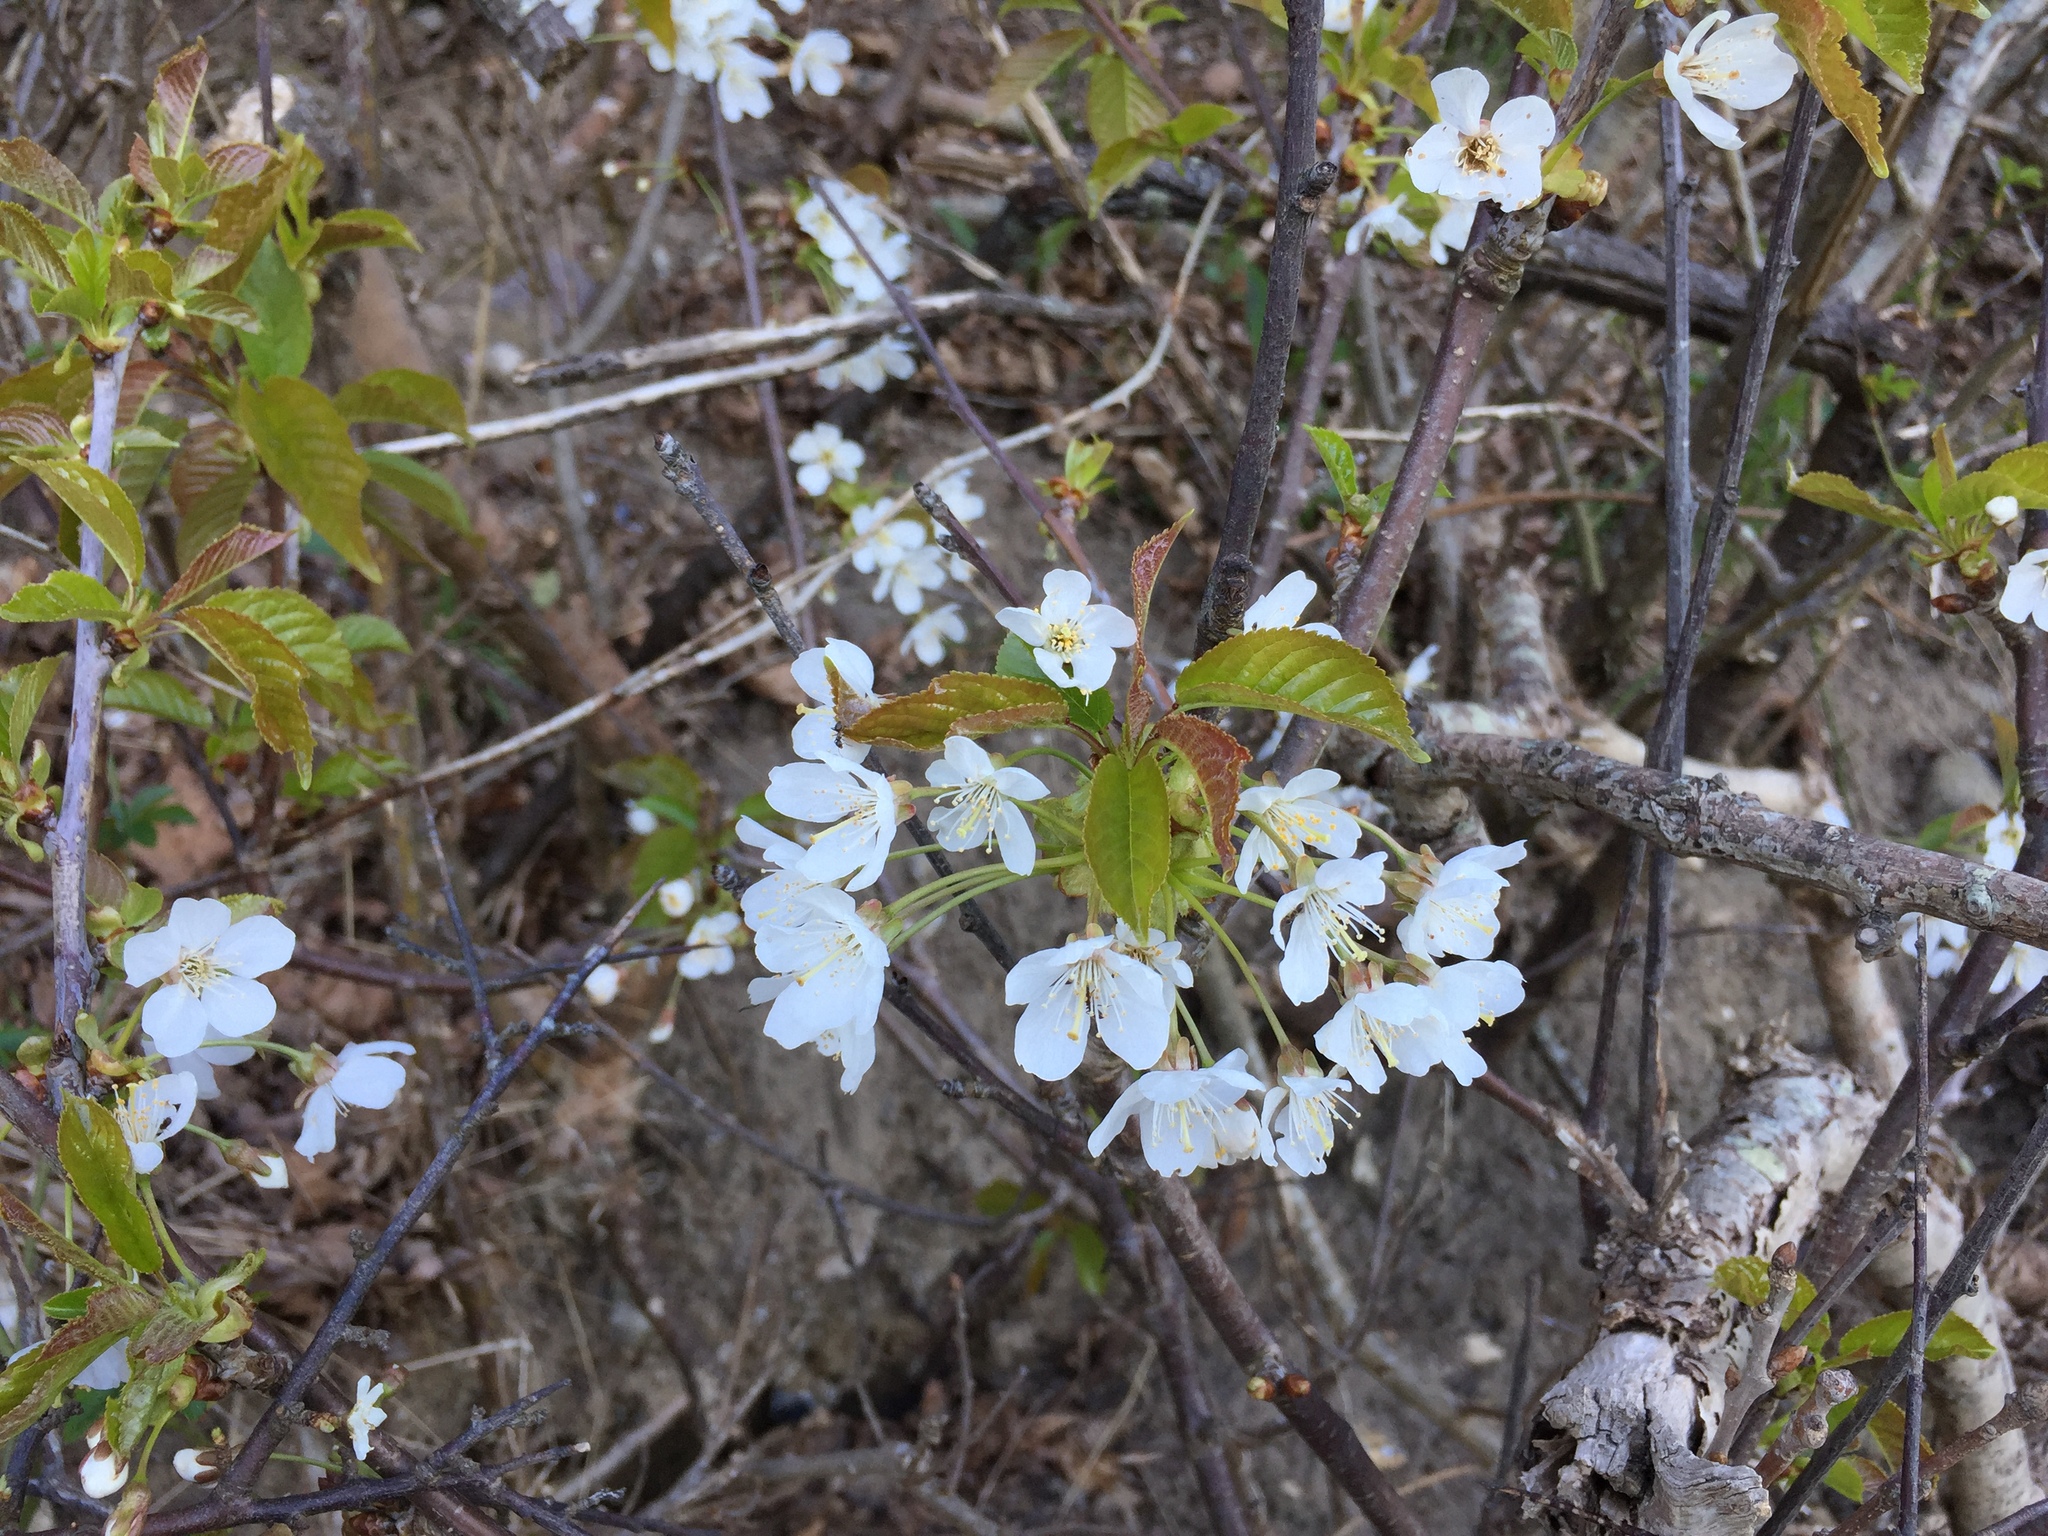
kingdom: Plantae
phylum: Tracheophyta
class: Magnoliopsida
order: Rosales
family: Rosaceae
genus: Prunus
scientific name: Prunus cerasus
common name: Morello cherry
